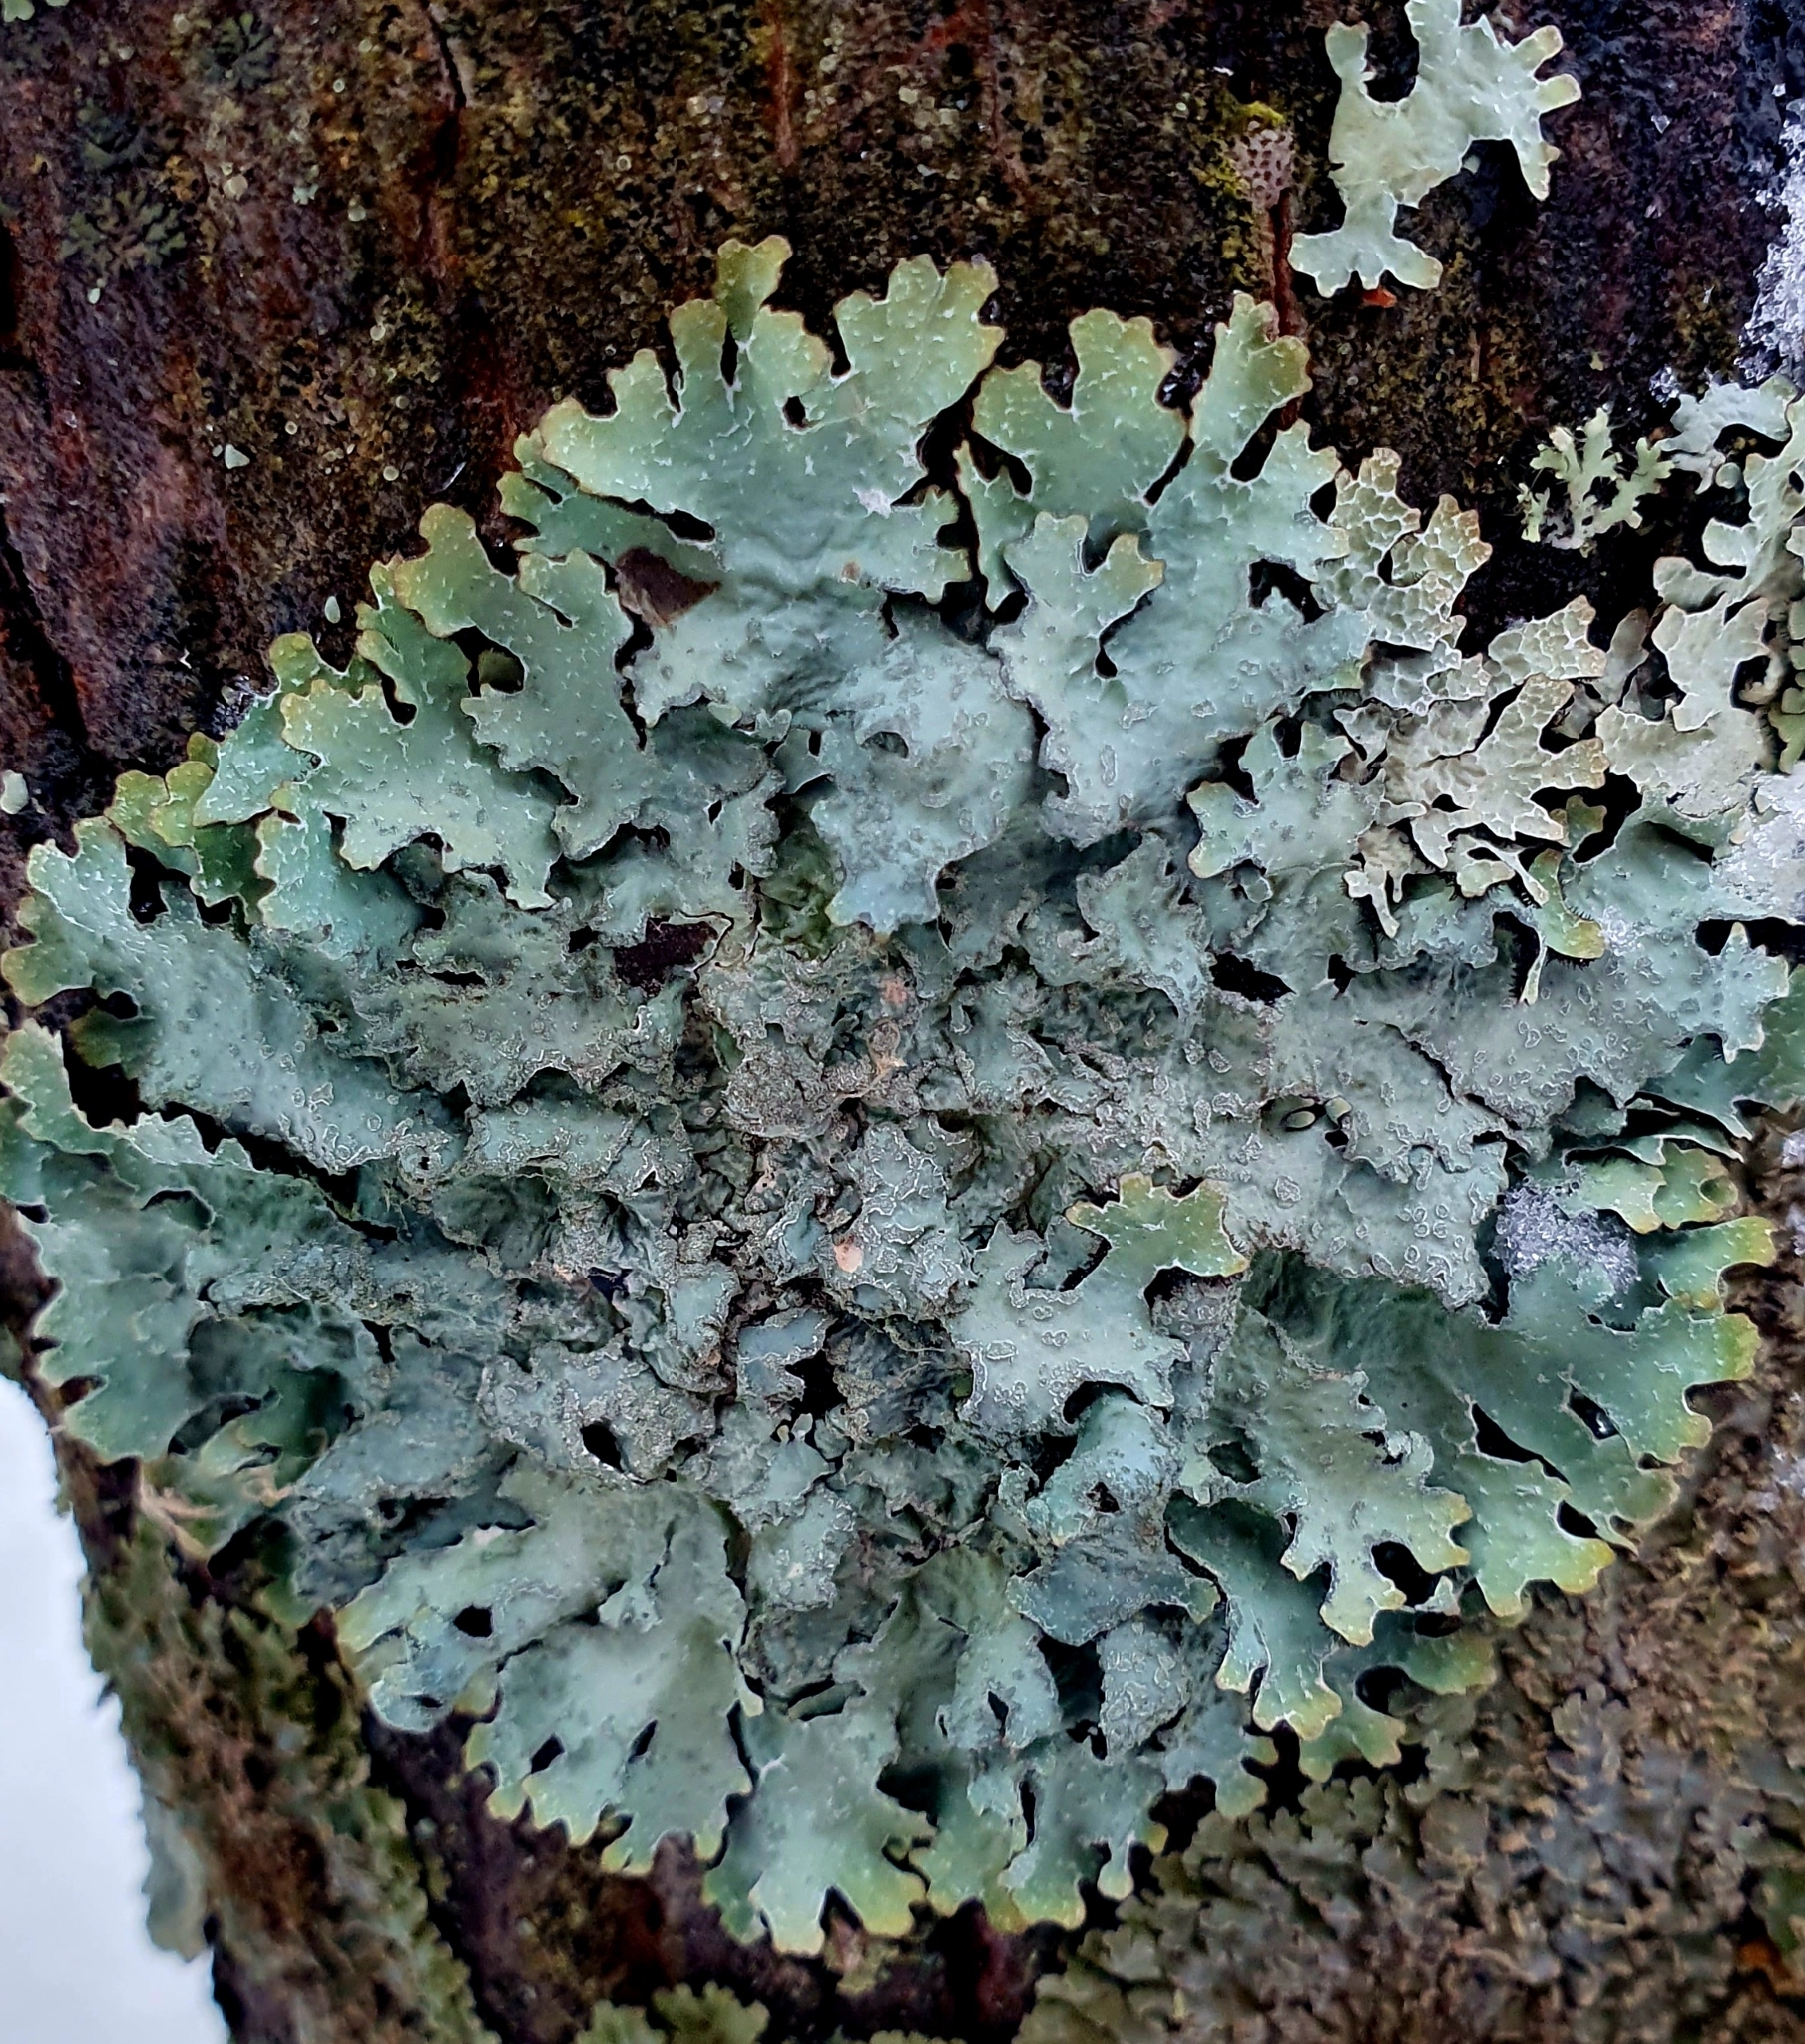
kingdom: Fungi
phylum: Ascomycota
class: Lecanoromycetes
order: Lecanorales
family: Parmeliaceae
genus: Parmelia
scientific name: Parmelia sulcata
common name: Netted shield lichen
